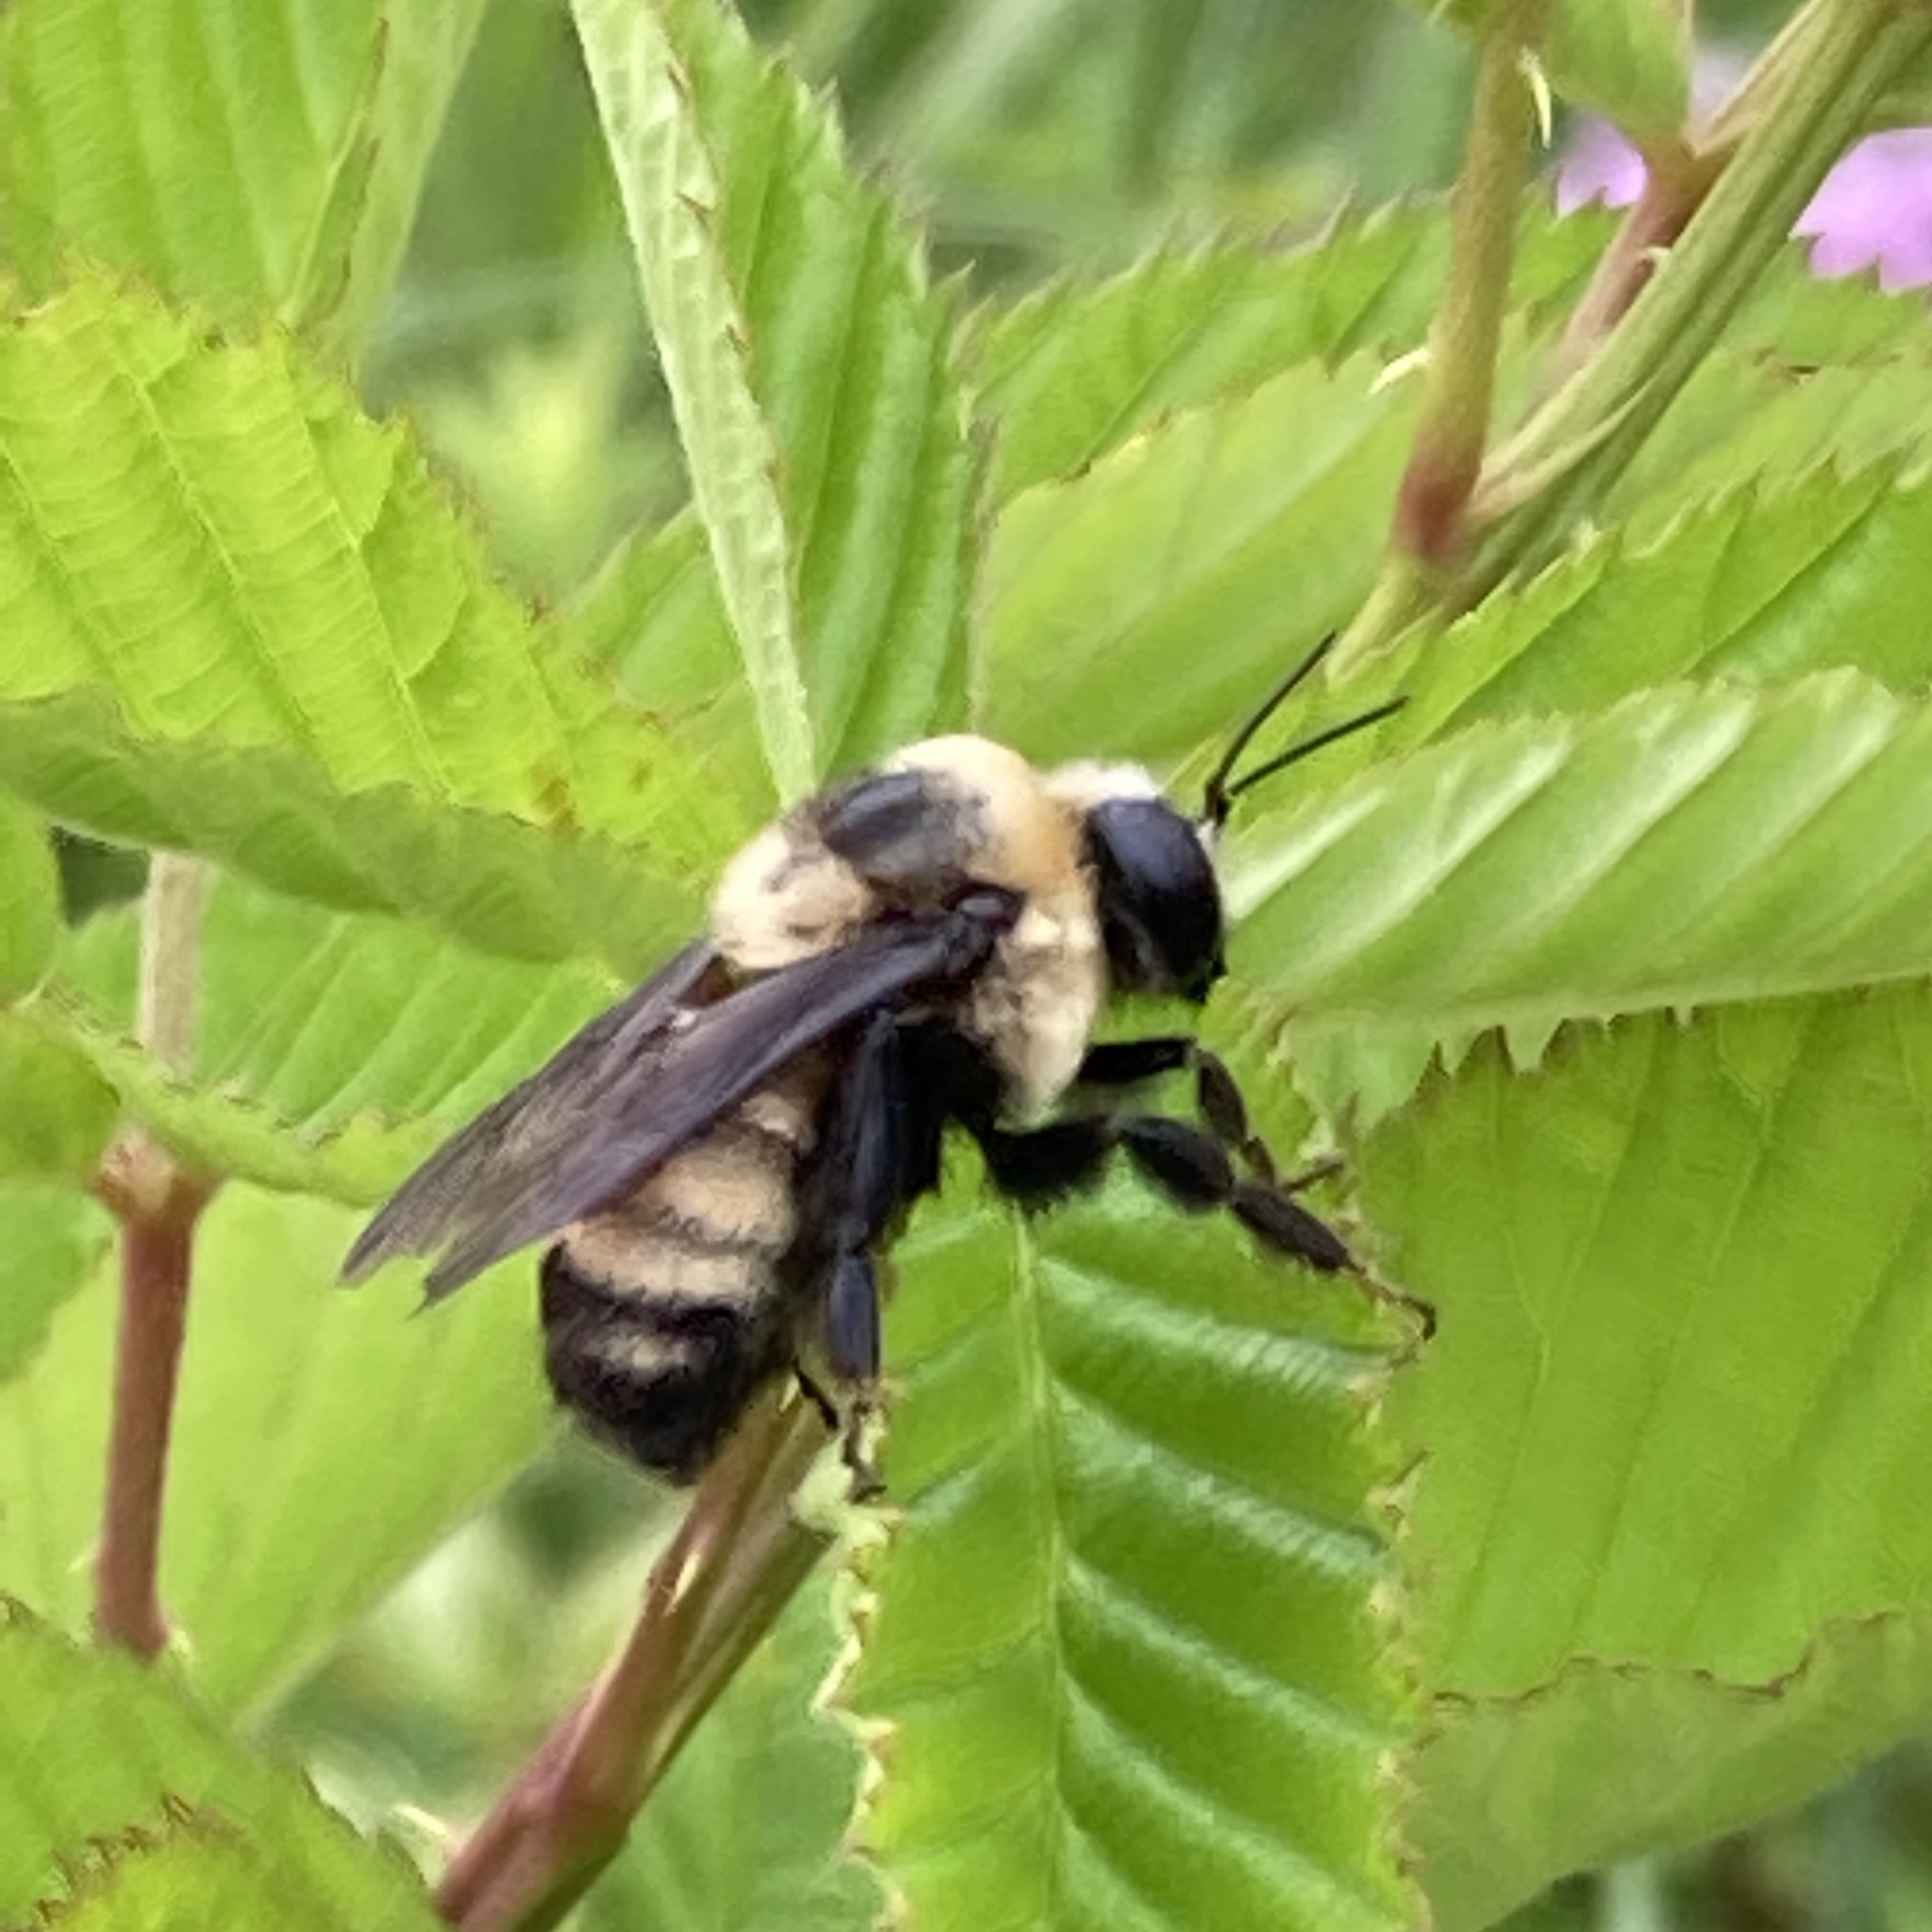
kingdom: Animalia
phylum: Arthropoda
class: Insecta
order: Hymenoptera
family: Apidae
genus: Bombus
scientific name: Bombus auricomus
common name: Black and gold bumble bee
